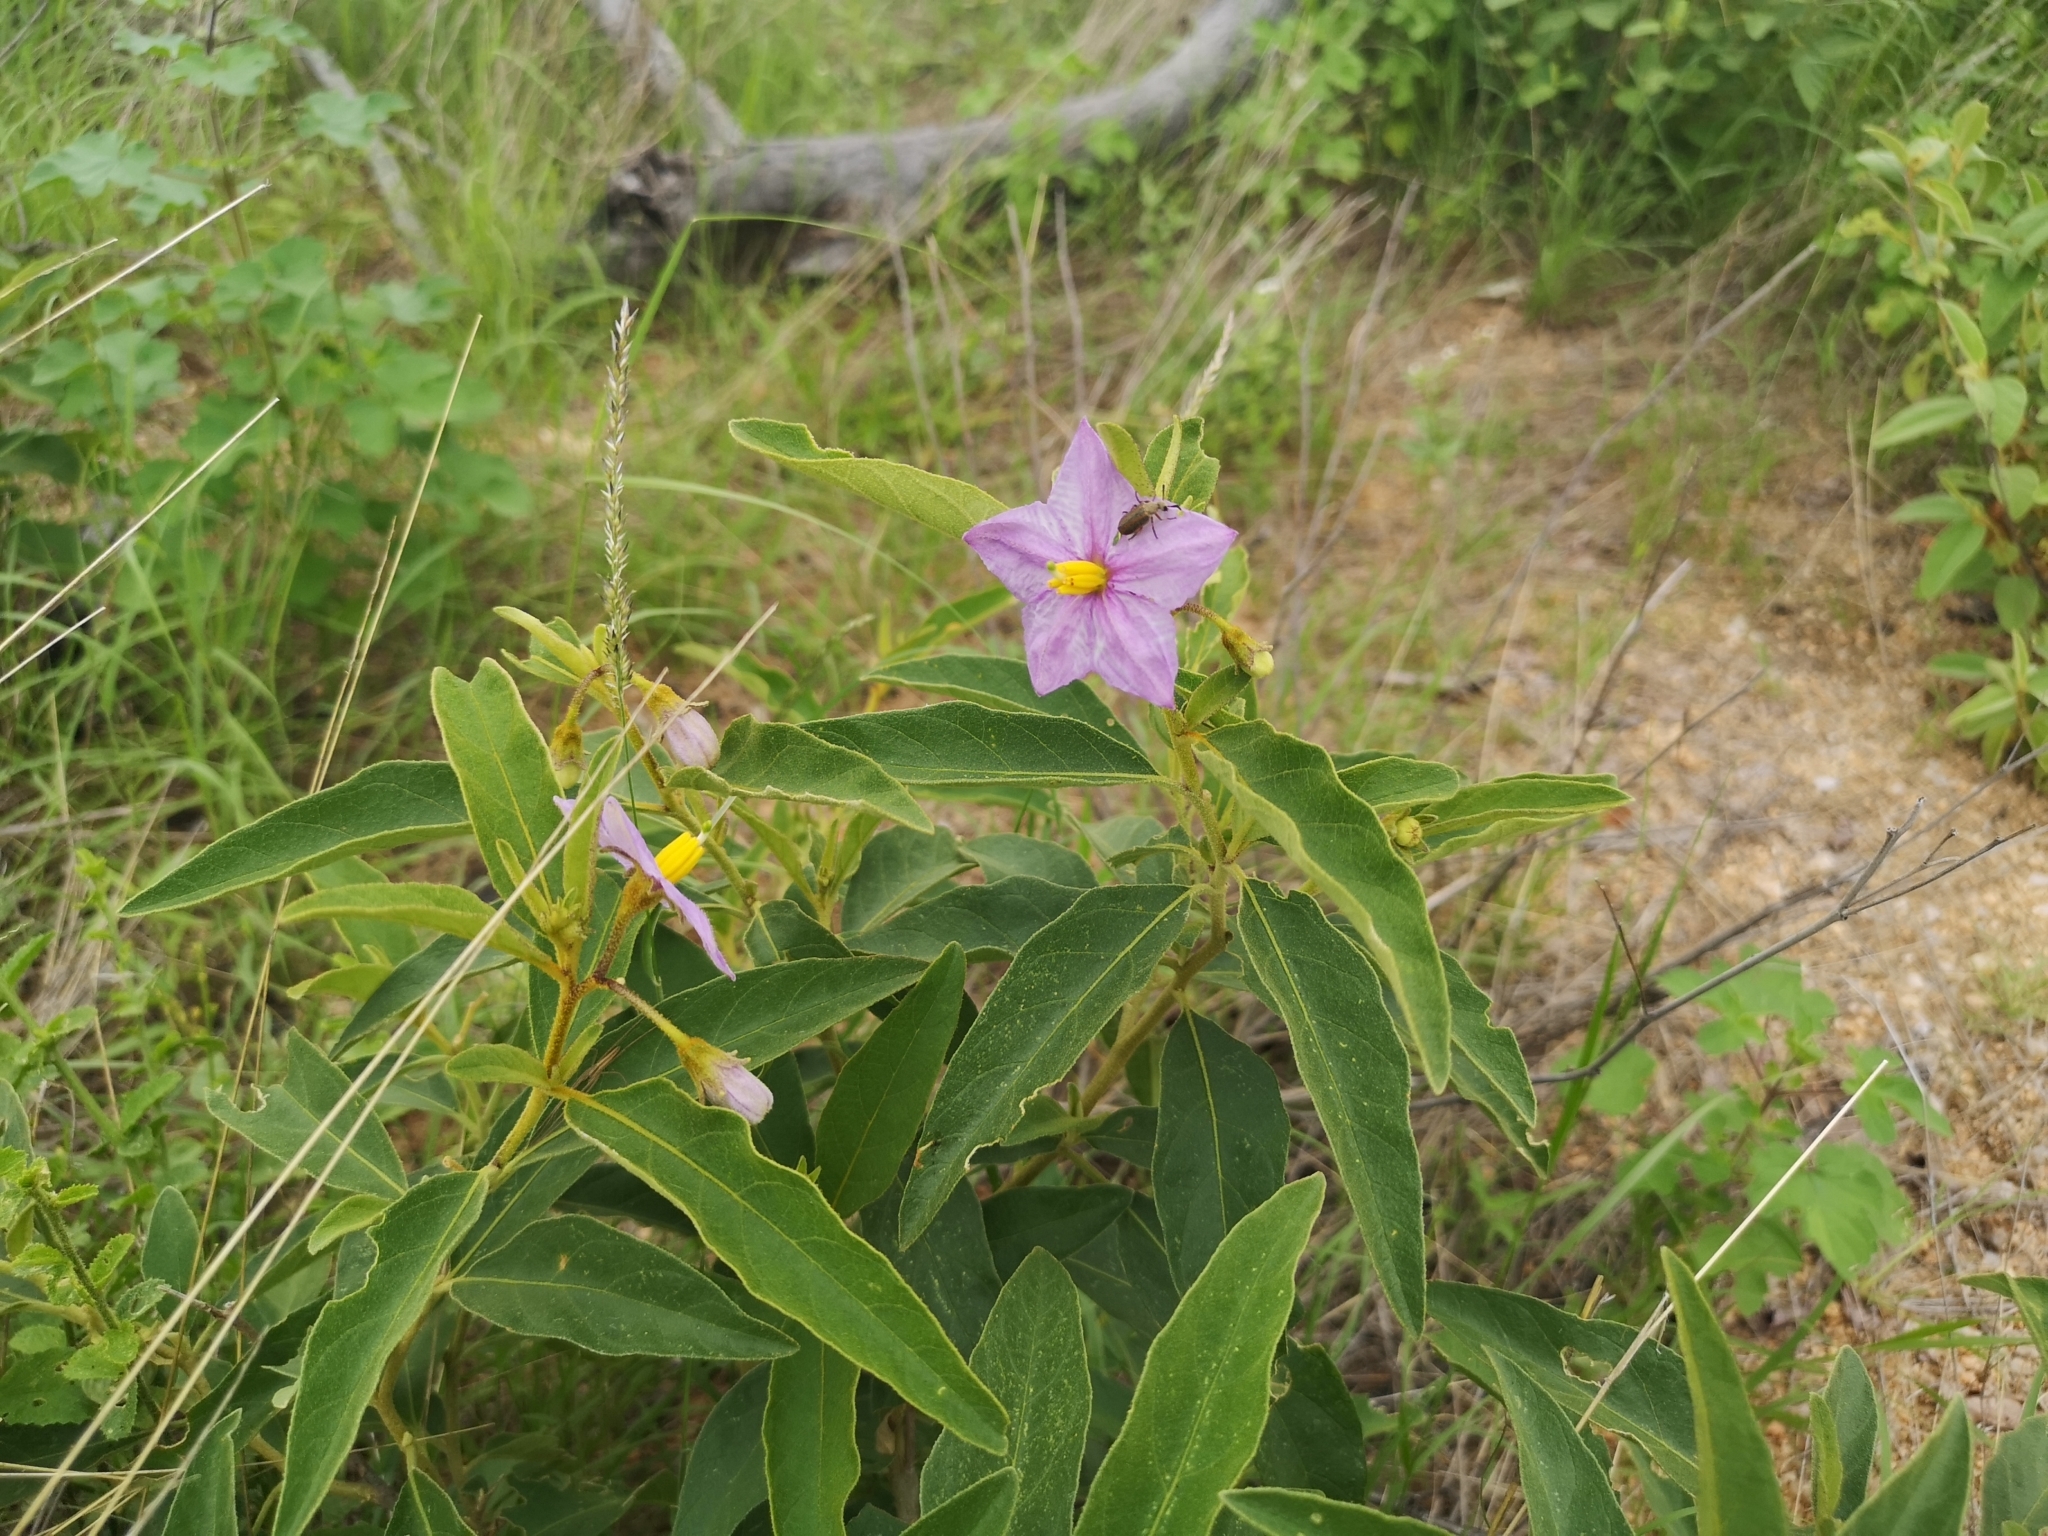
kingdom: Plantae
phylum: Tracheophyta
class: Magnoliopsida
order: Solanales
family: Solanaceae
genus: Solanum
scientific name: Solanum campylacanthum
